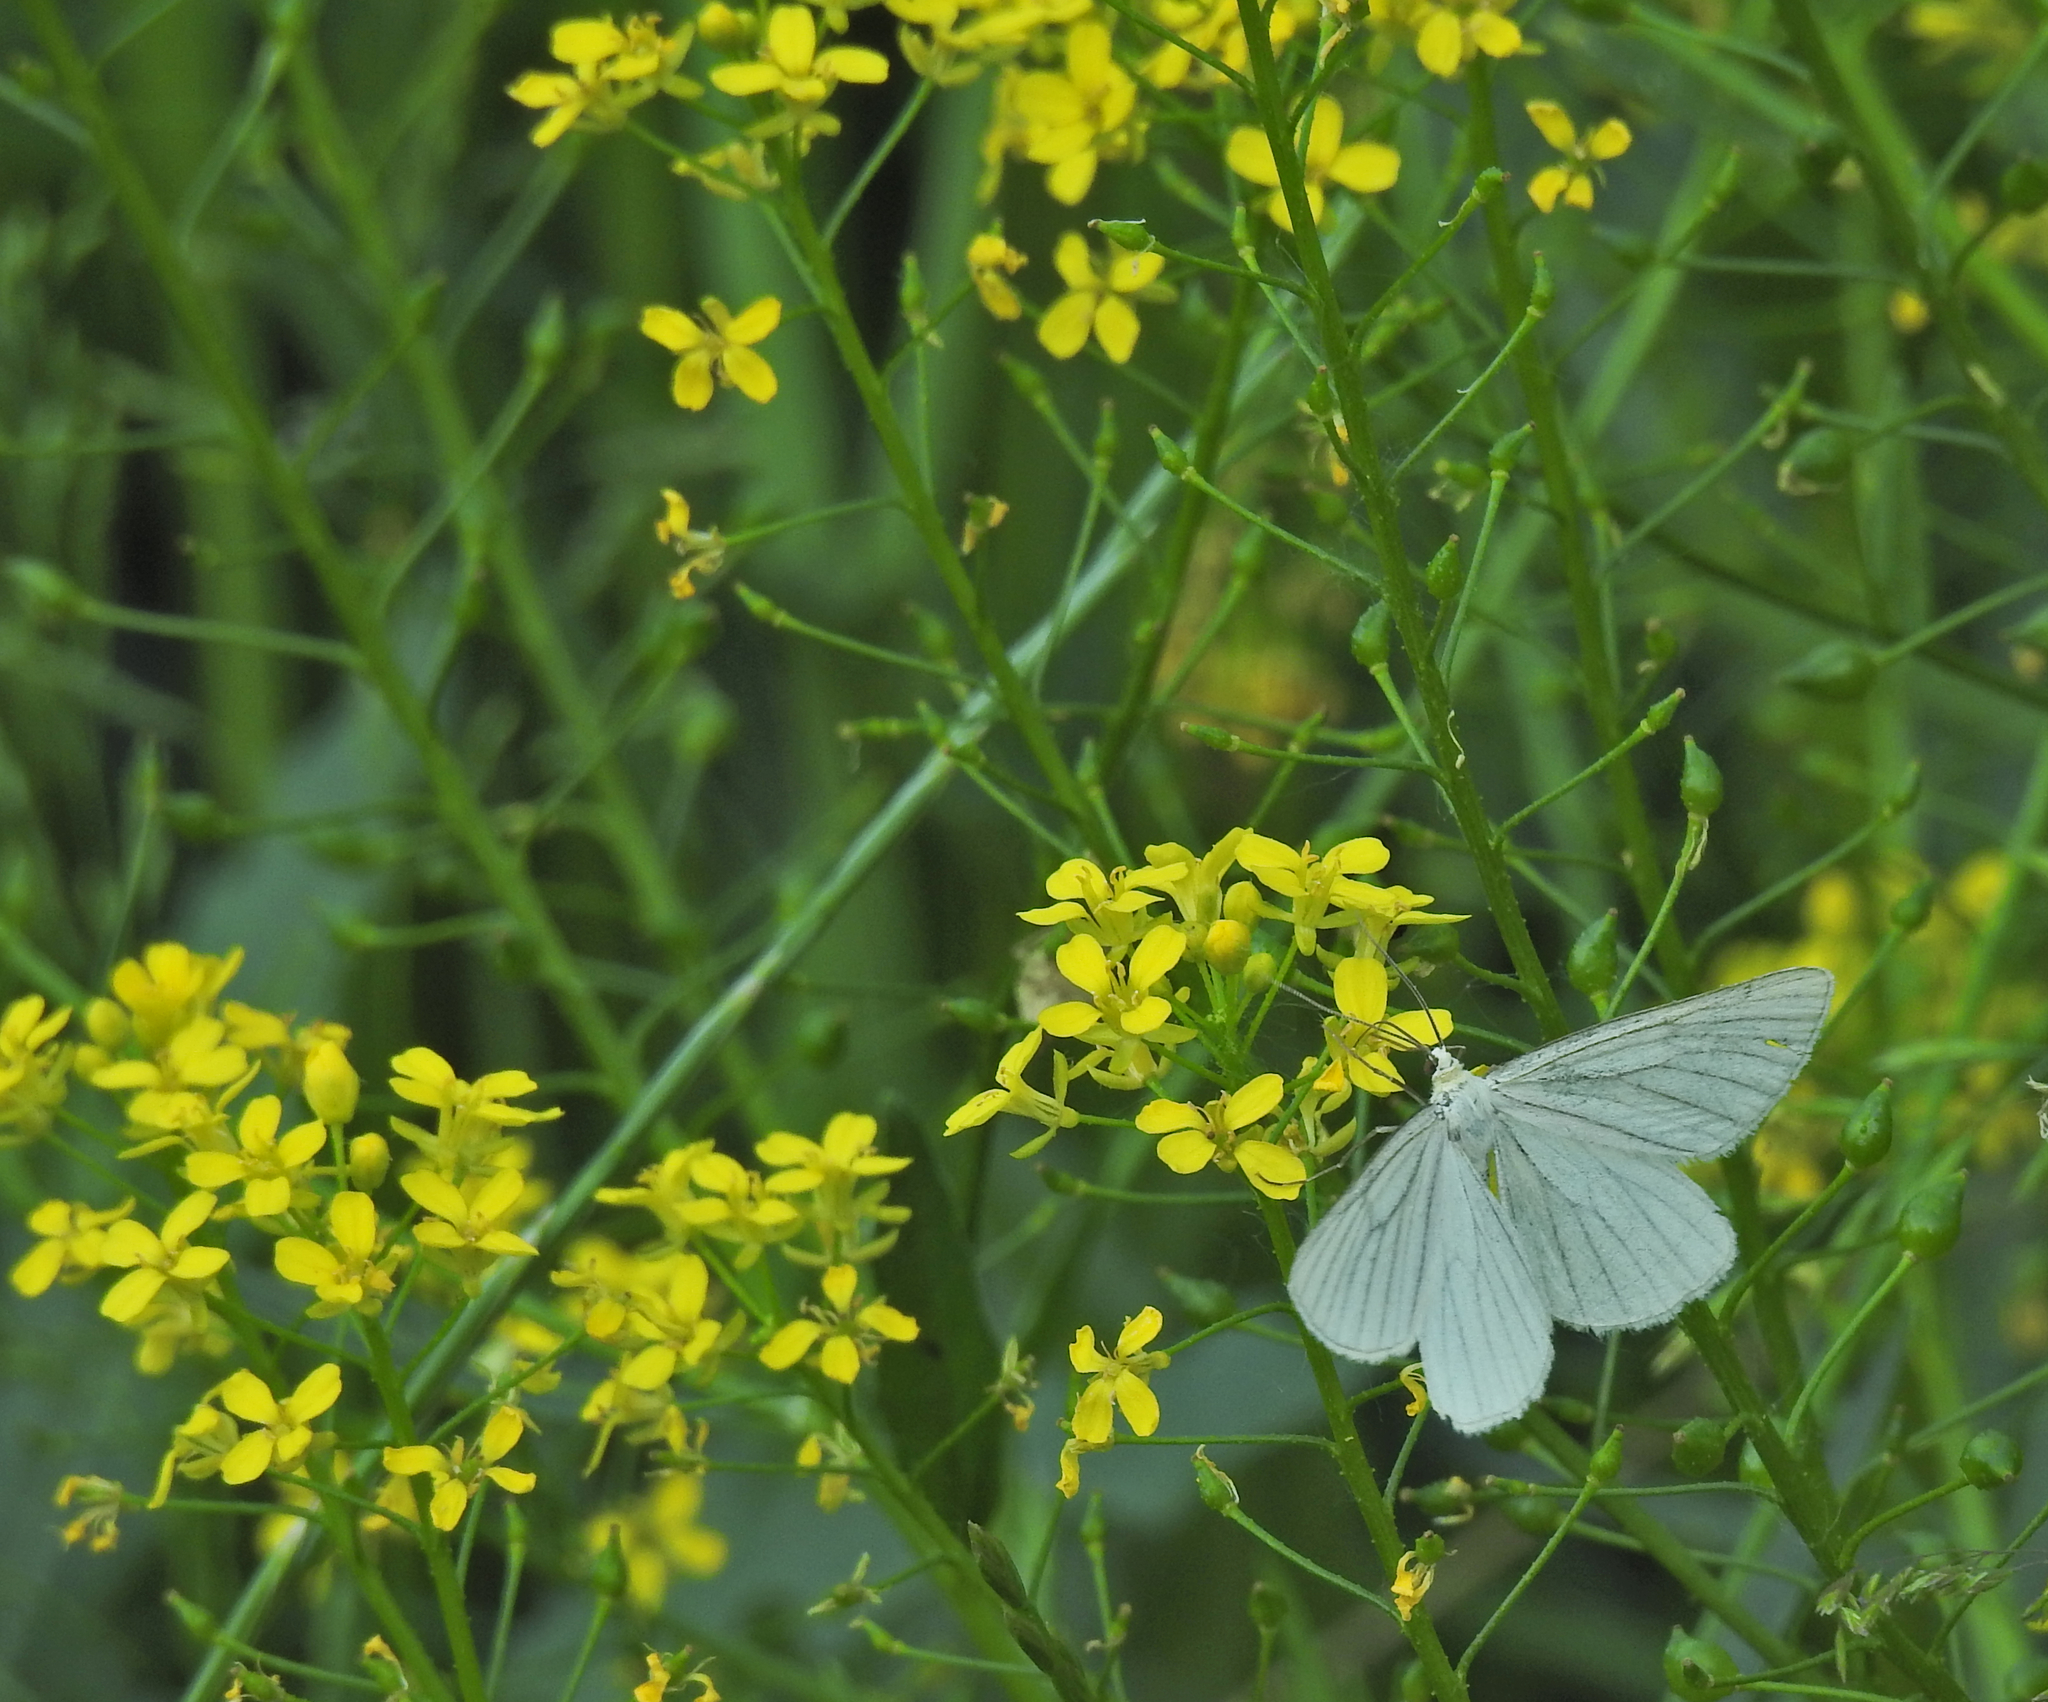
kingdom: Animalia
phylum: Arthropoda
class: Insecta
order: Lepidoptera
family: Geometridae
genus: Siona
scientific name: Siona lineata
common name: Black-veined moth
